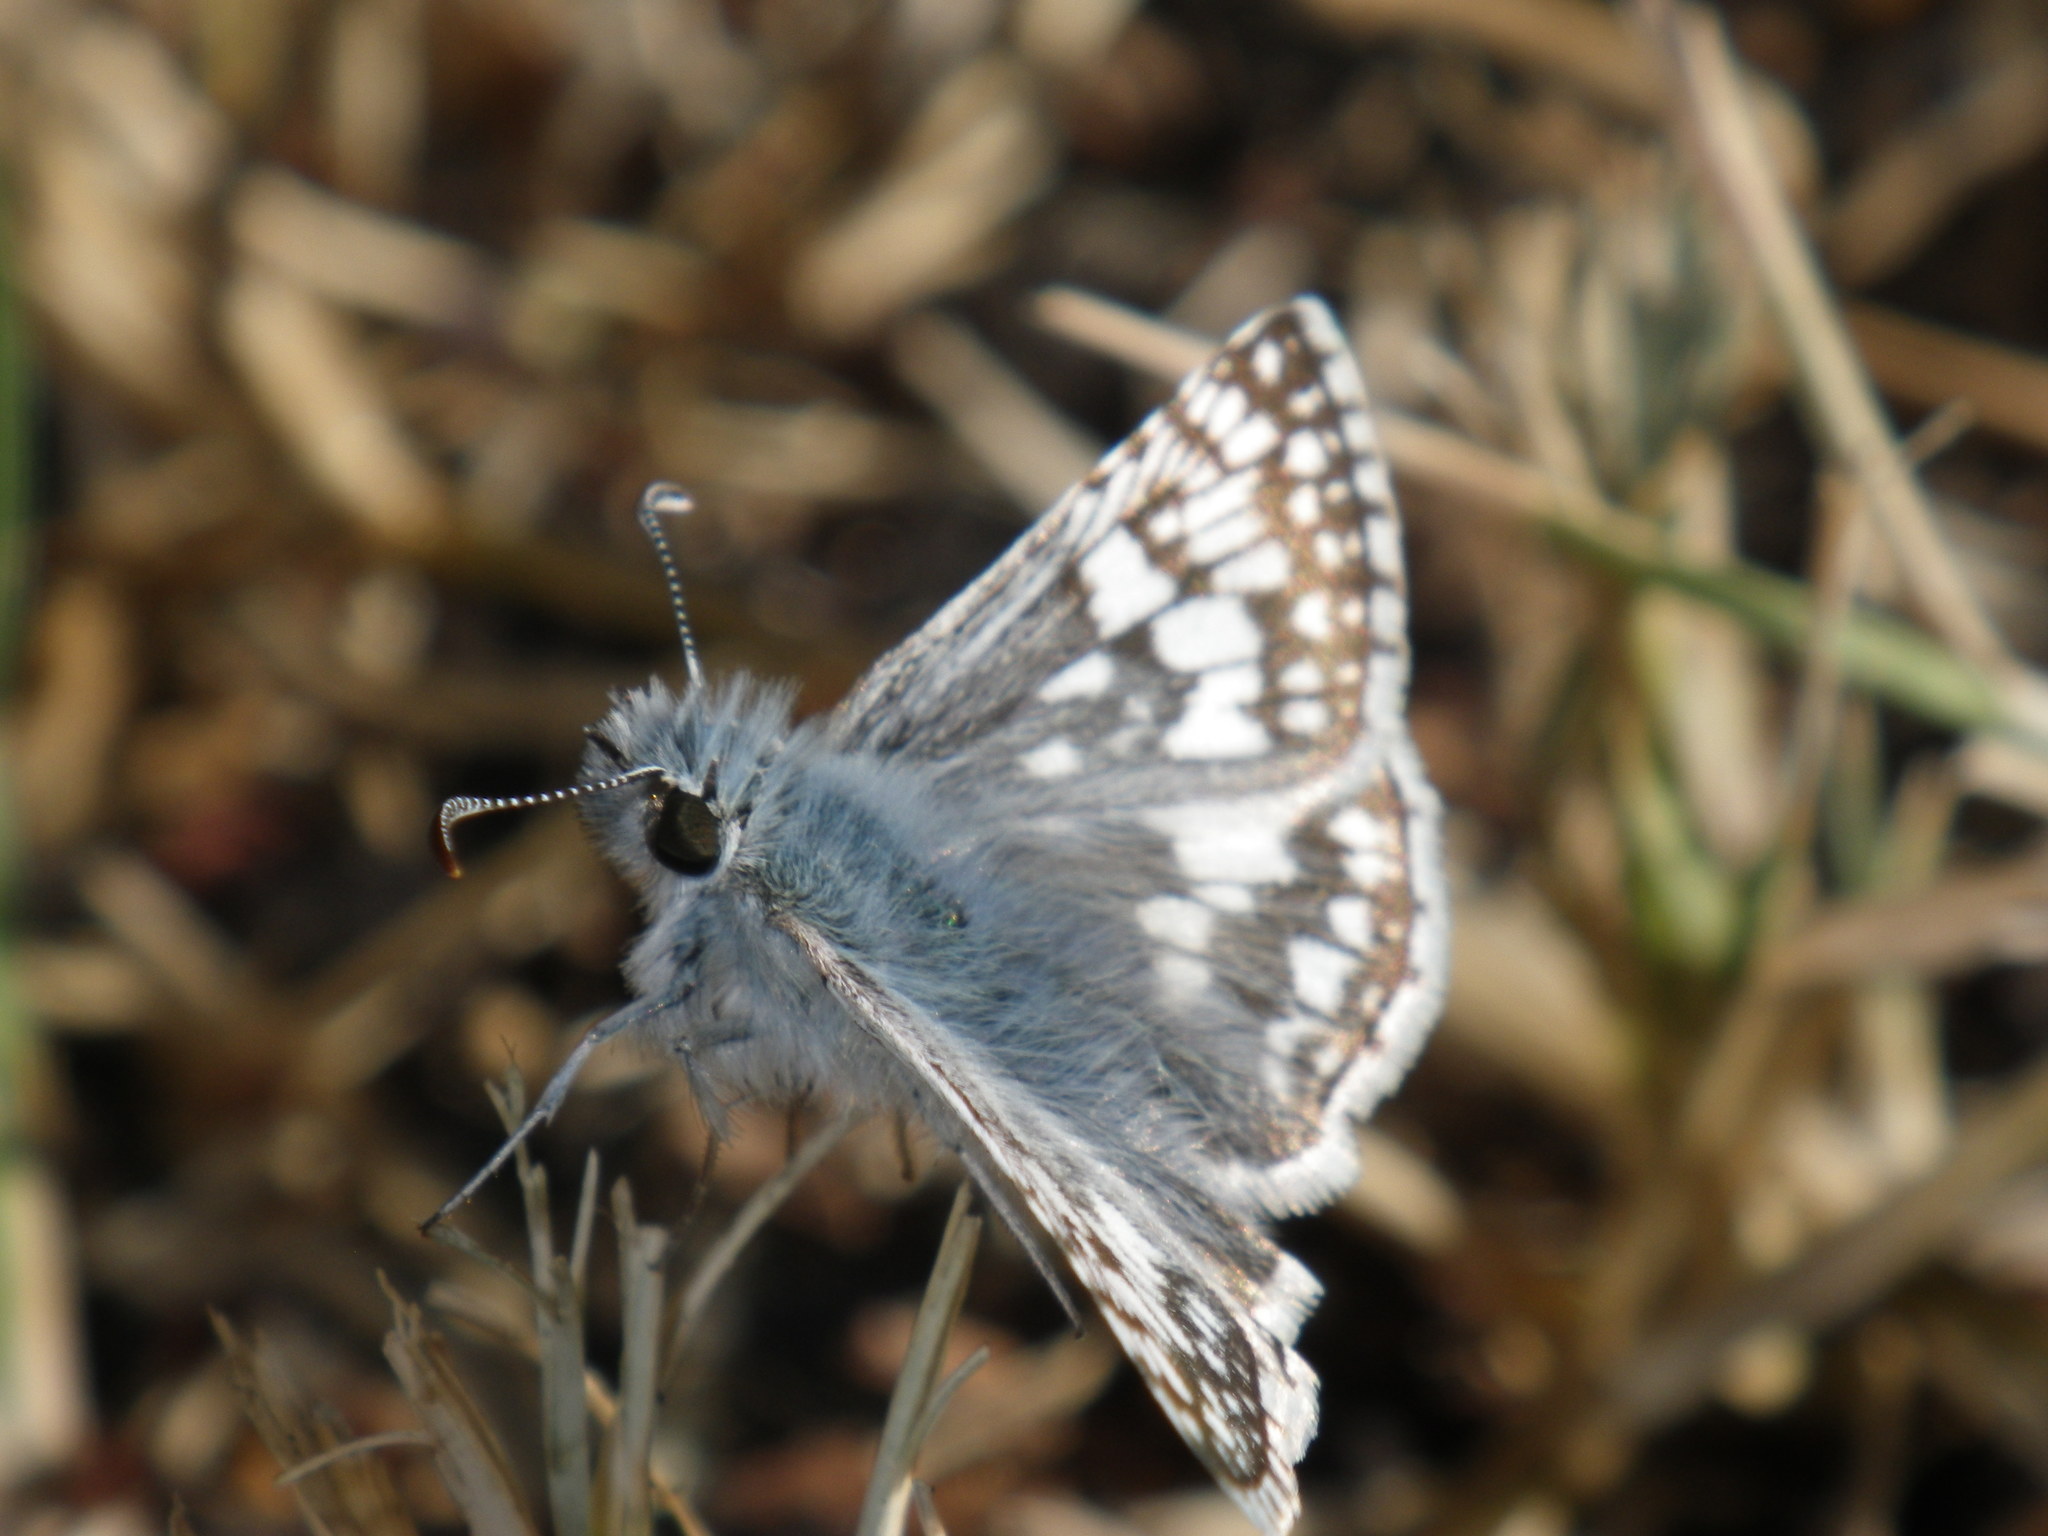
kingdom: Animalia
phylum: Arthropoda
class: Insecta
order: Lepidoptera
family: Hesperiidae
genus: Burnsius
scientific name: Burnsius communis
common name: Common checkered-skipper
